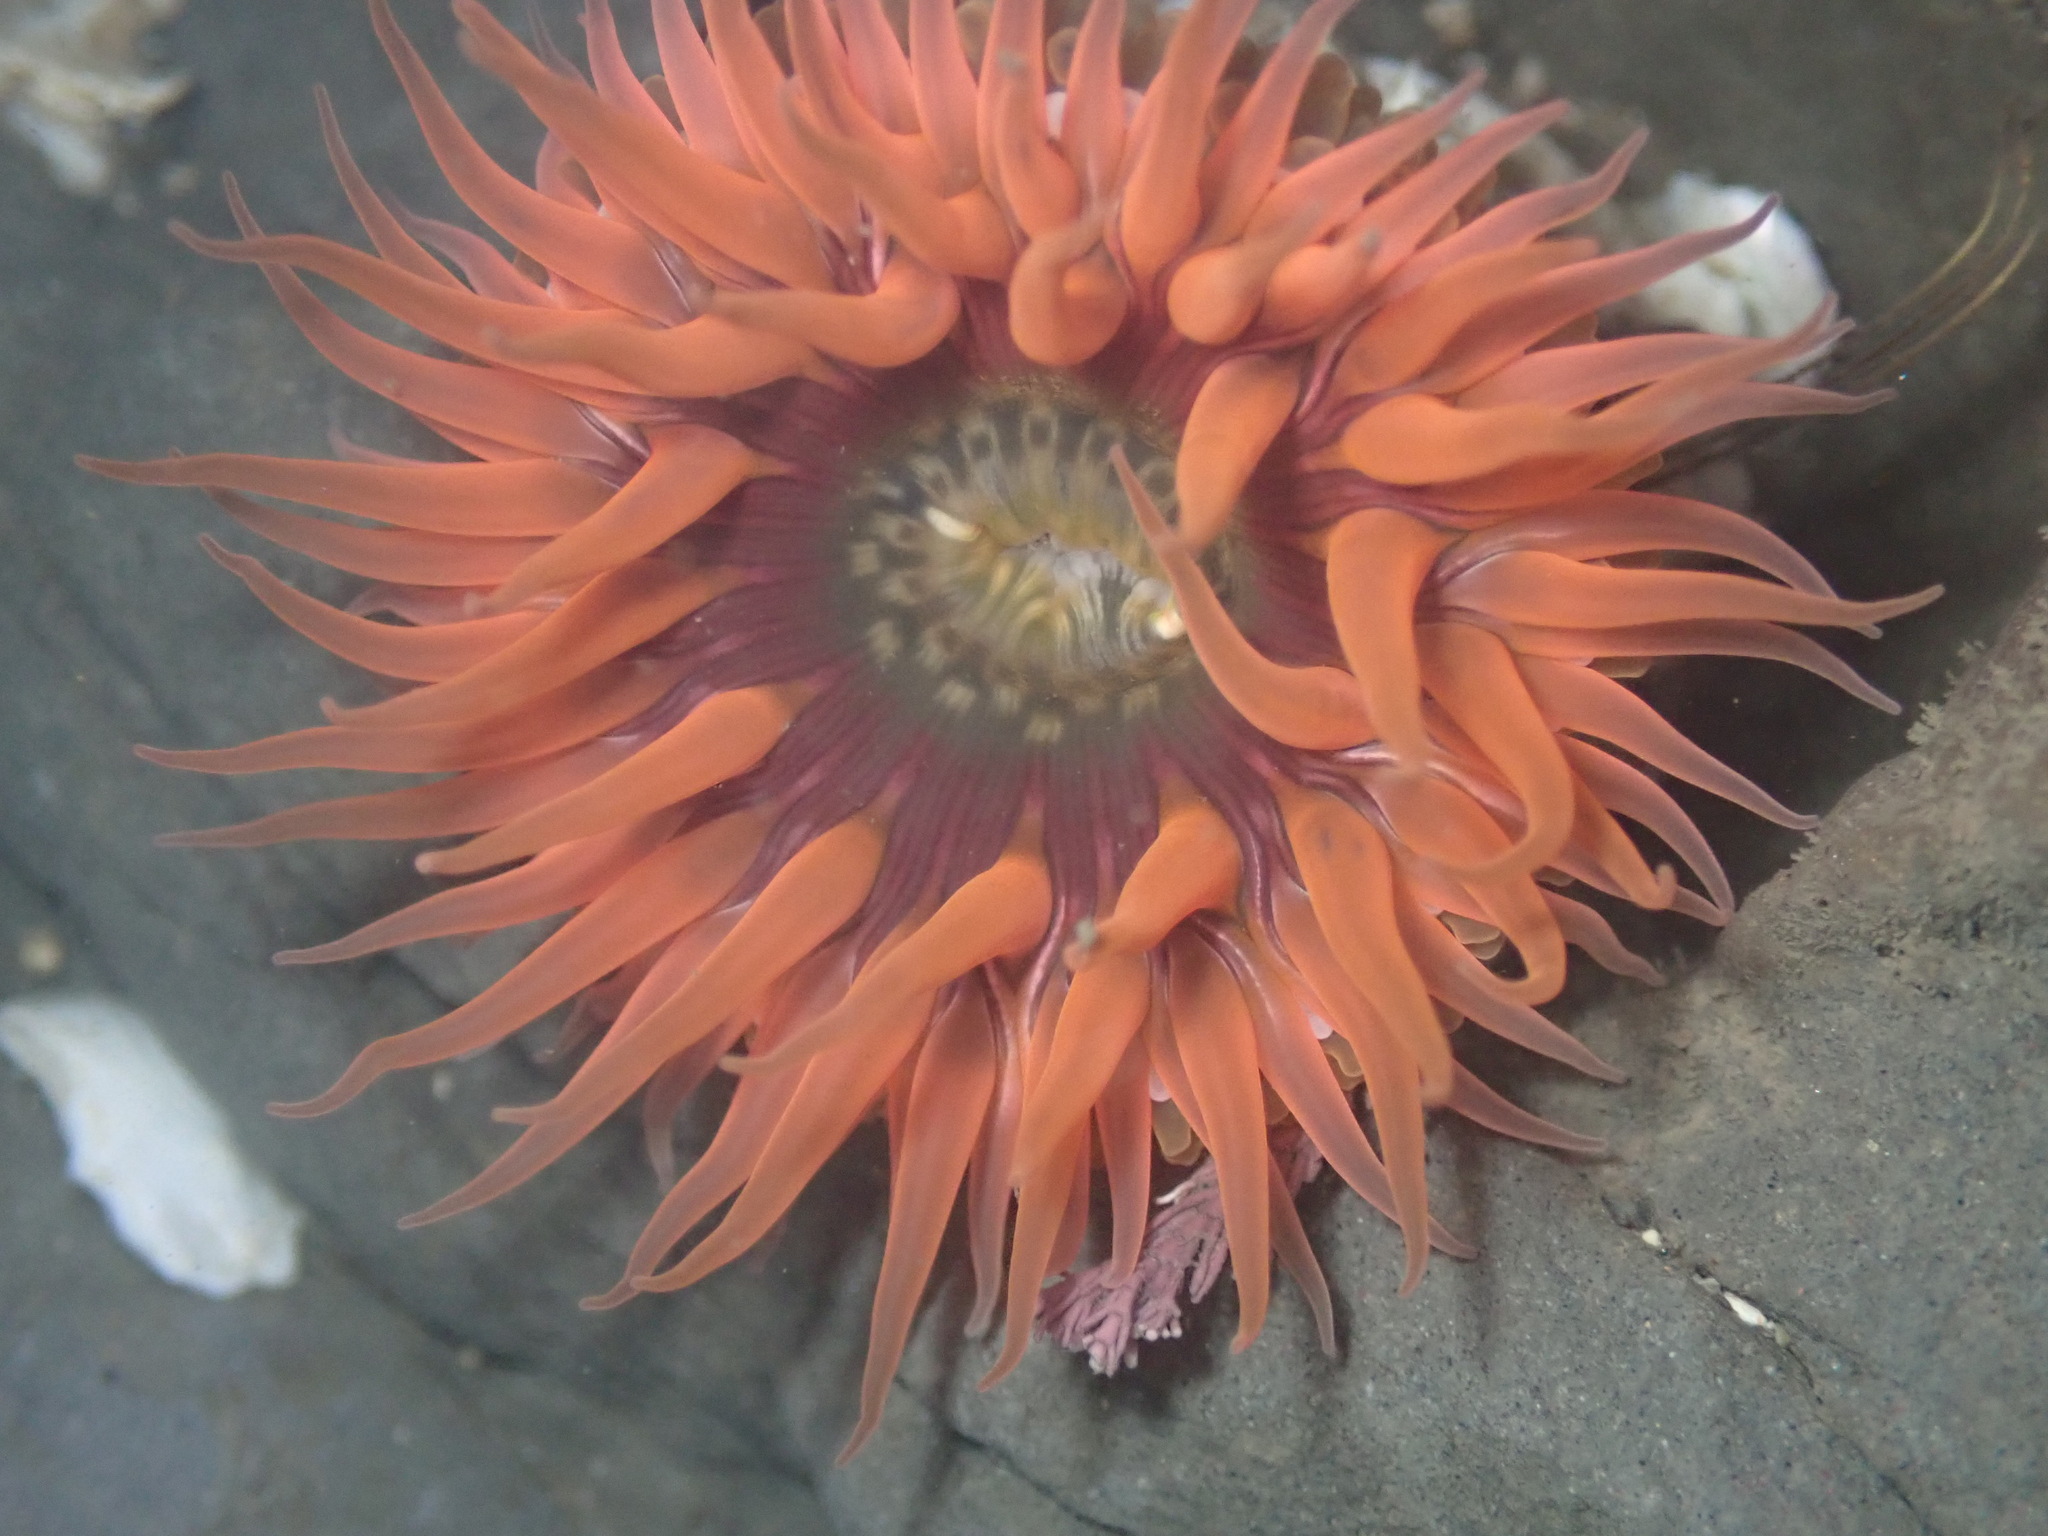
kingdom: Animalia
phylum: Cnidaria
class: Anthozoa
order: Actiniaria
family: Actiniidae
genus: Anthopleura
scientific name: Anthopleura artemisia
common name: Buried sea anemone
